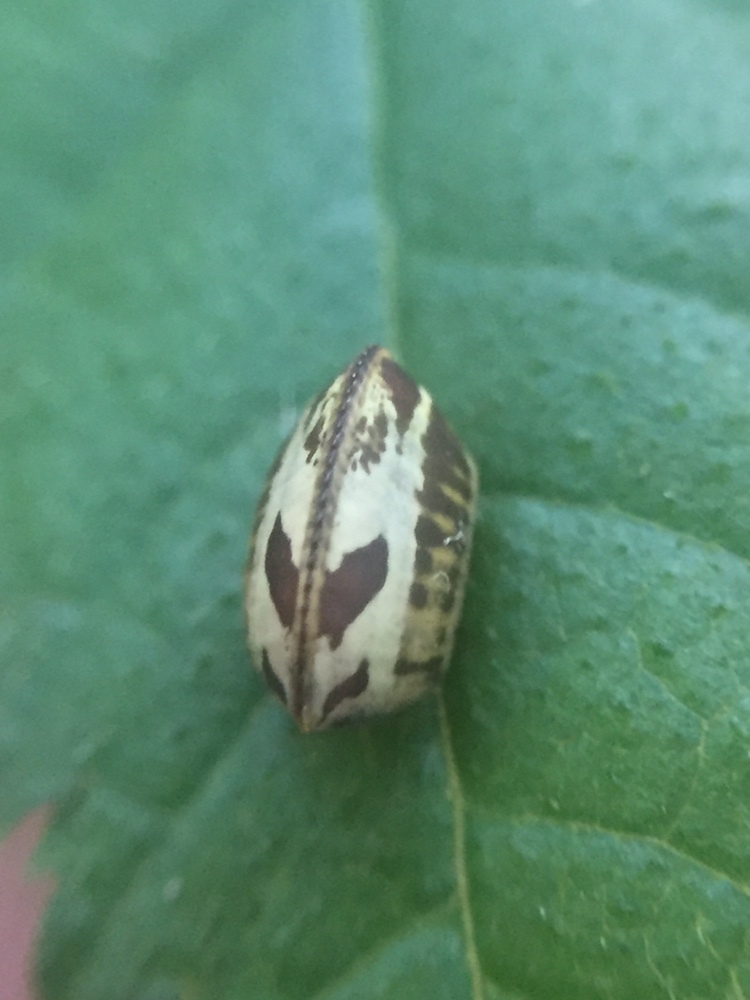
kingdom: Animalia
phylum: Arthropoda
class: Insecta
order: Blattodea
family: Ectobiidae
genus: Balta
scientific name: Balta bicolor
